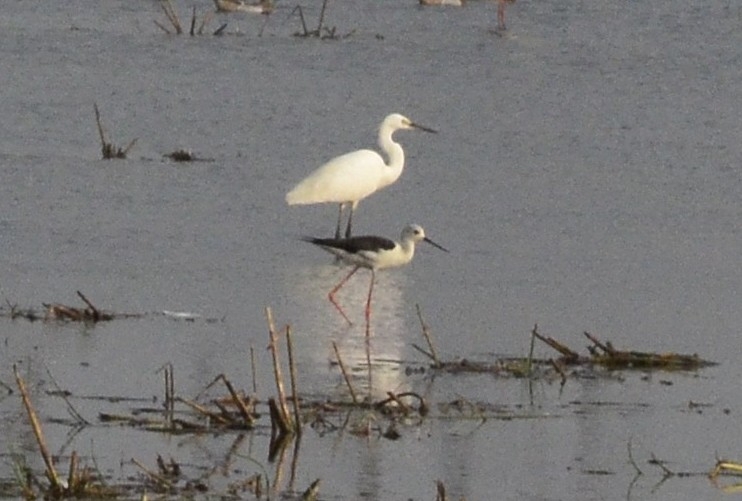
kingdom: Animalia
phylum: Chordata
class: Aves
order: Pelecaniformes
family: Ardeidae
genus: Egretta
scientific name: Egretta garzetta
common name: Little egret
